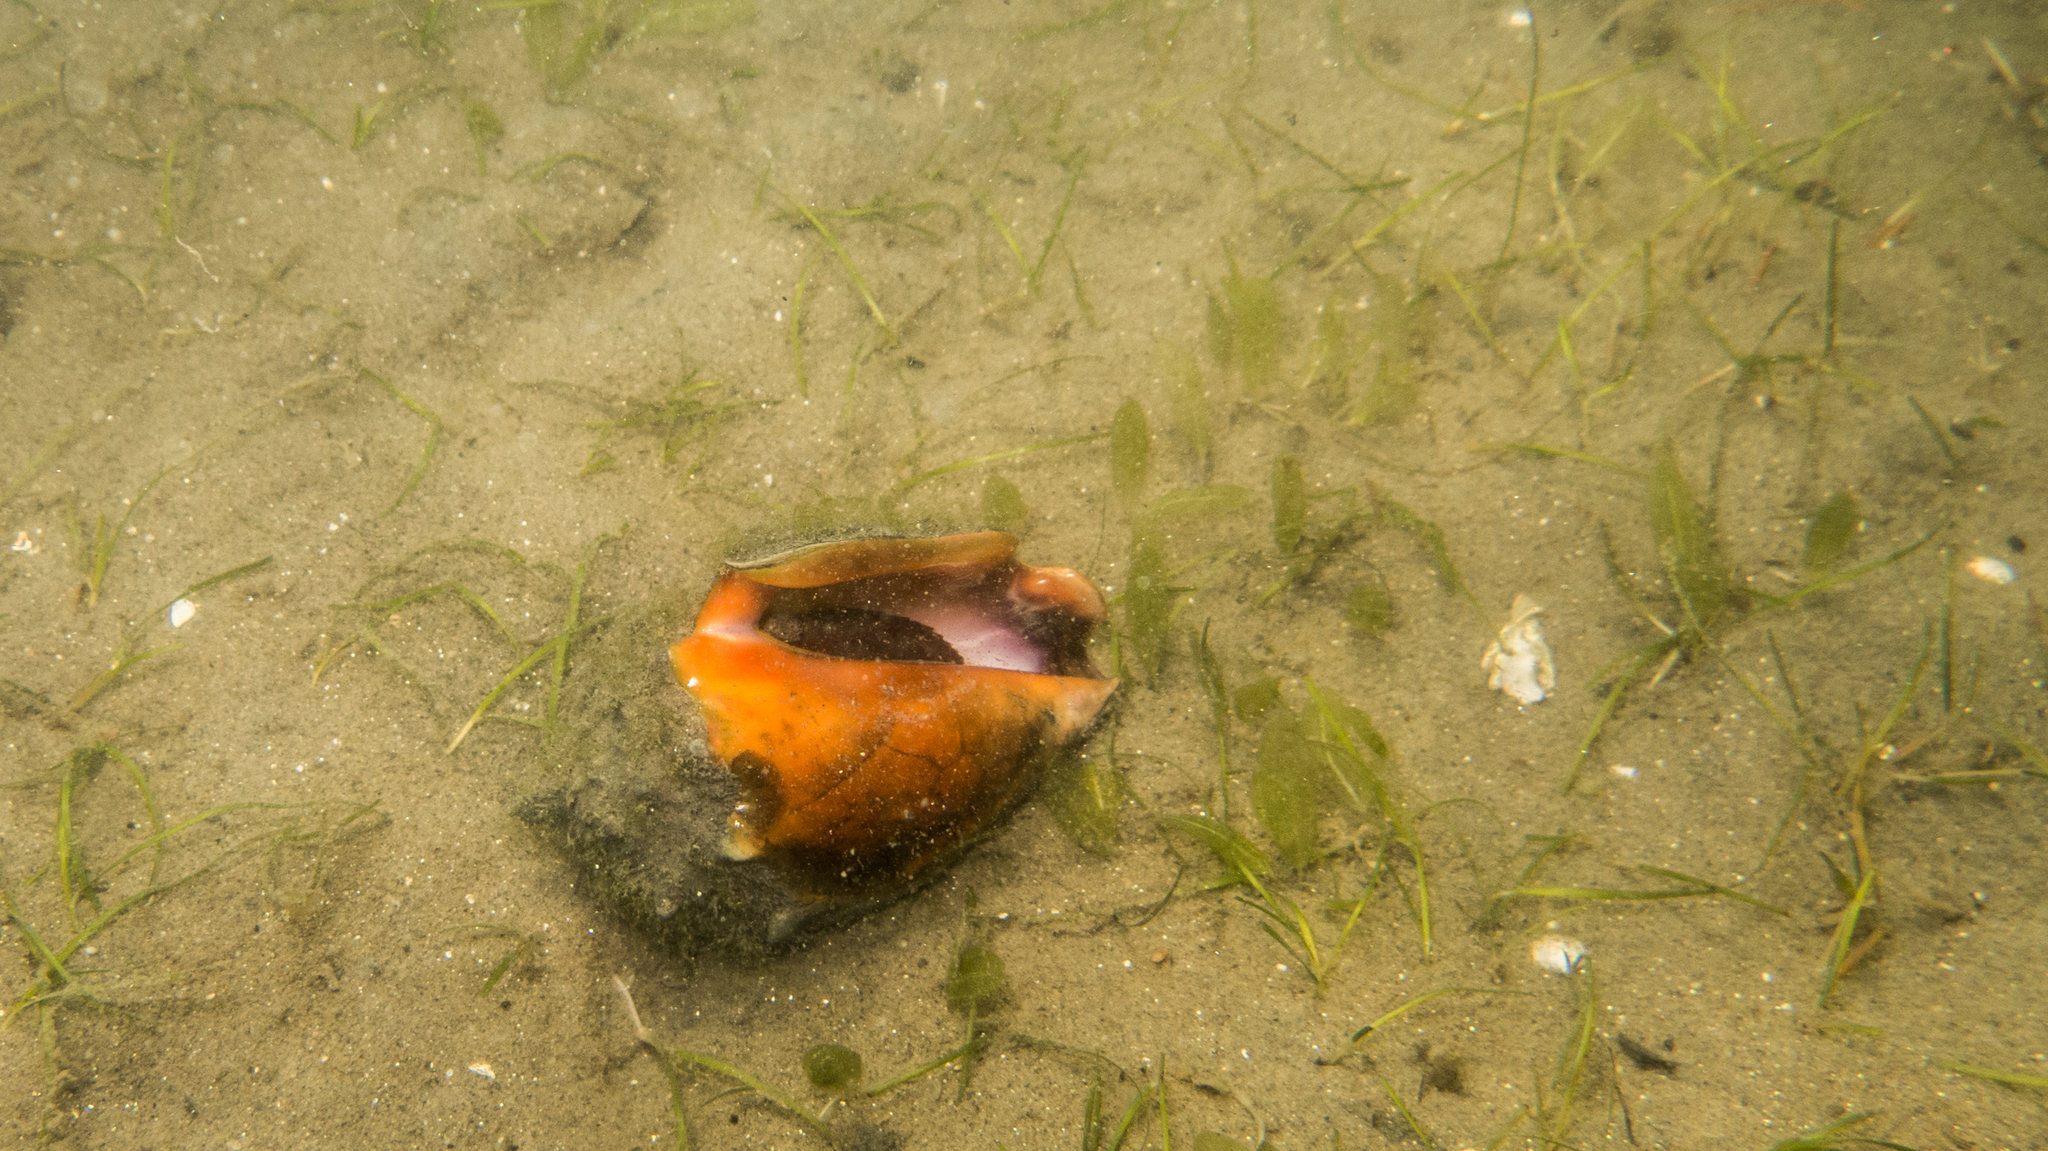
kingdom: Animalia
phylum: Mollusca
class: Gastropoda
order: Littorinimorpha
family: Strombidae
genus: Strombus
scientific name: Strombus pugilis
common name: West indian fighting conch
